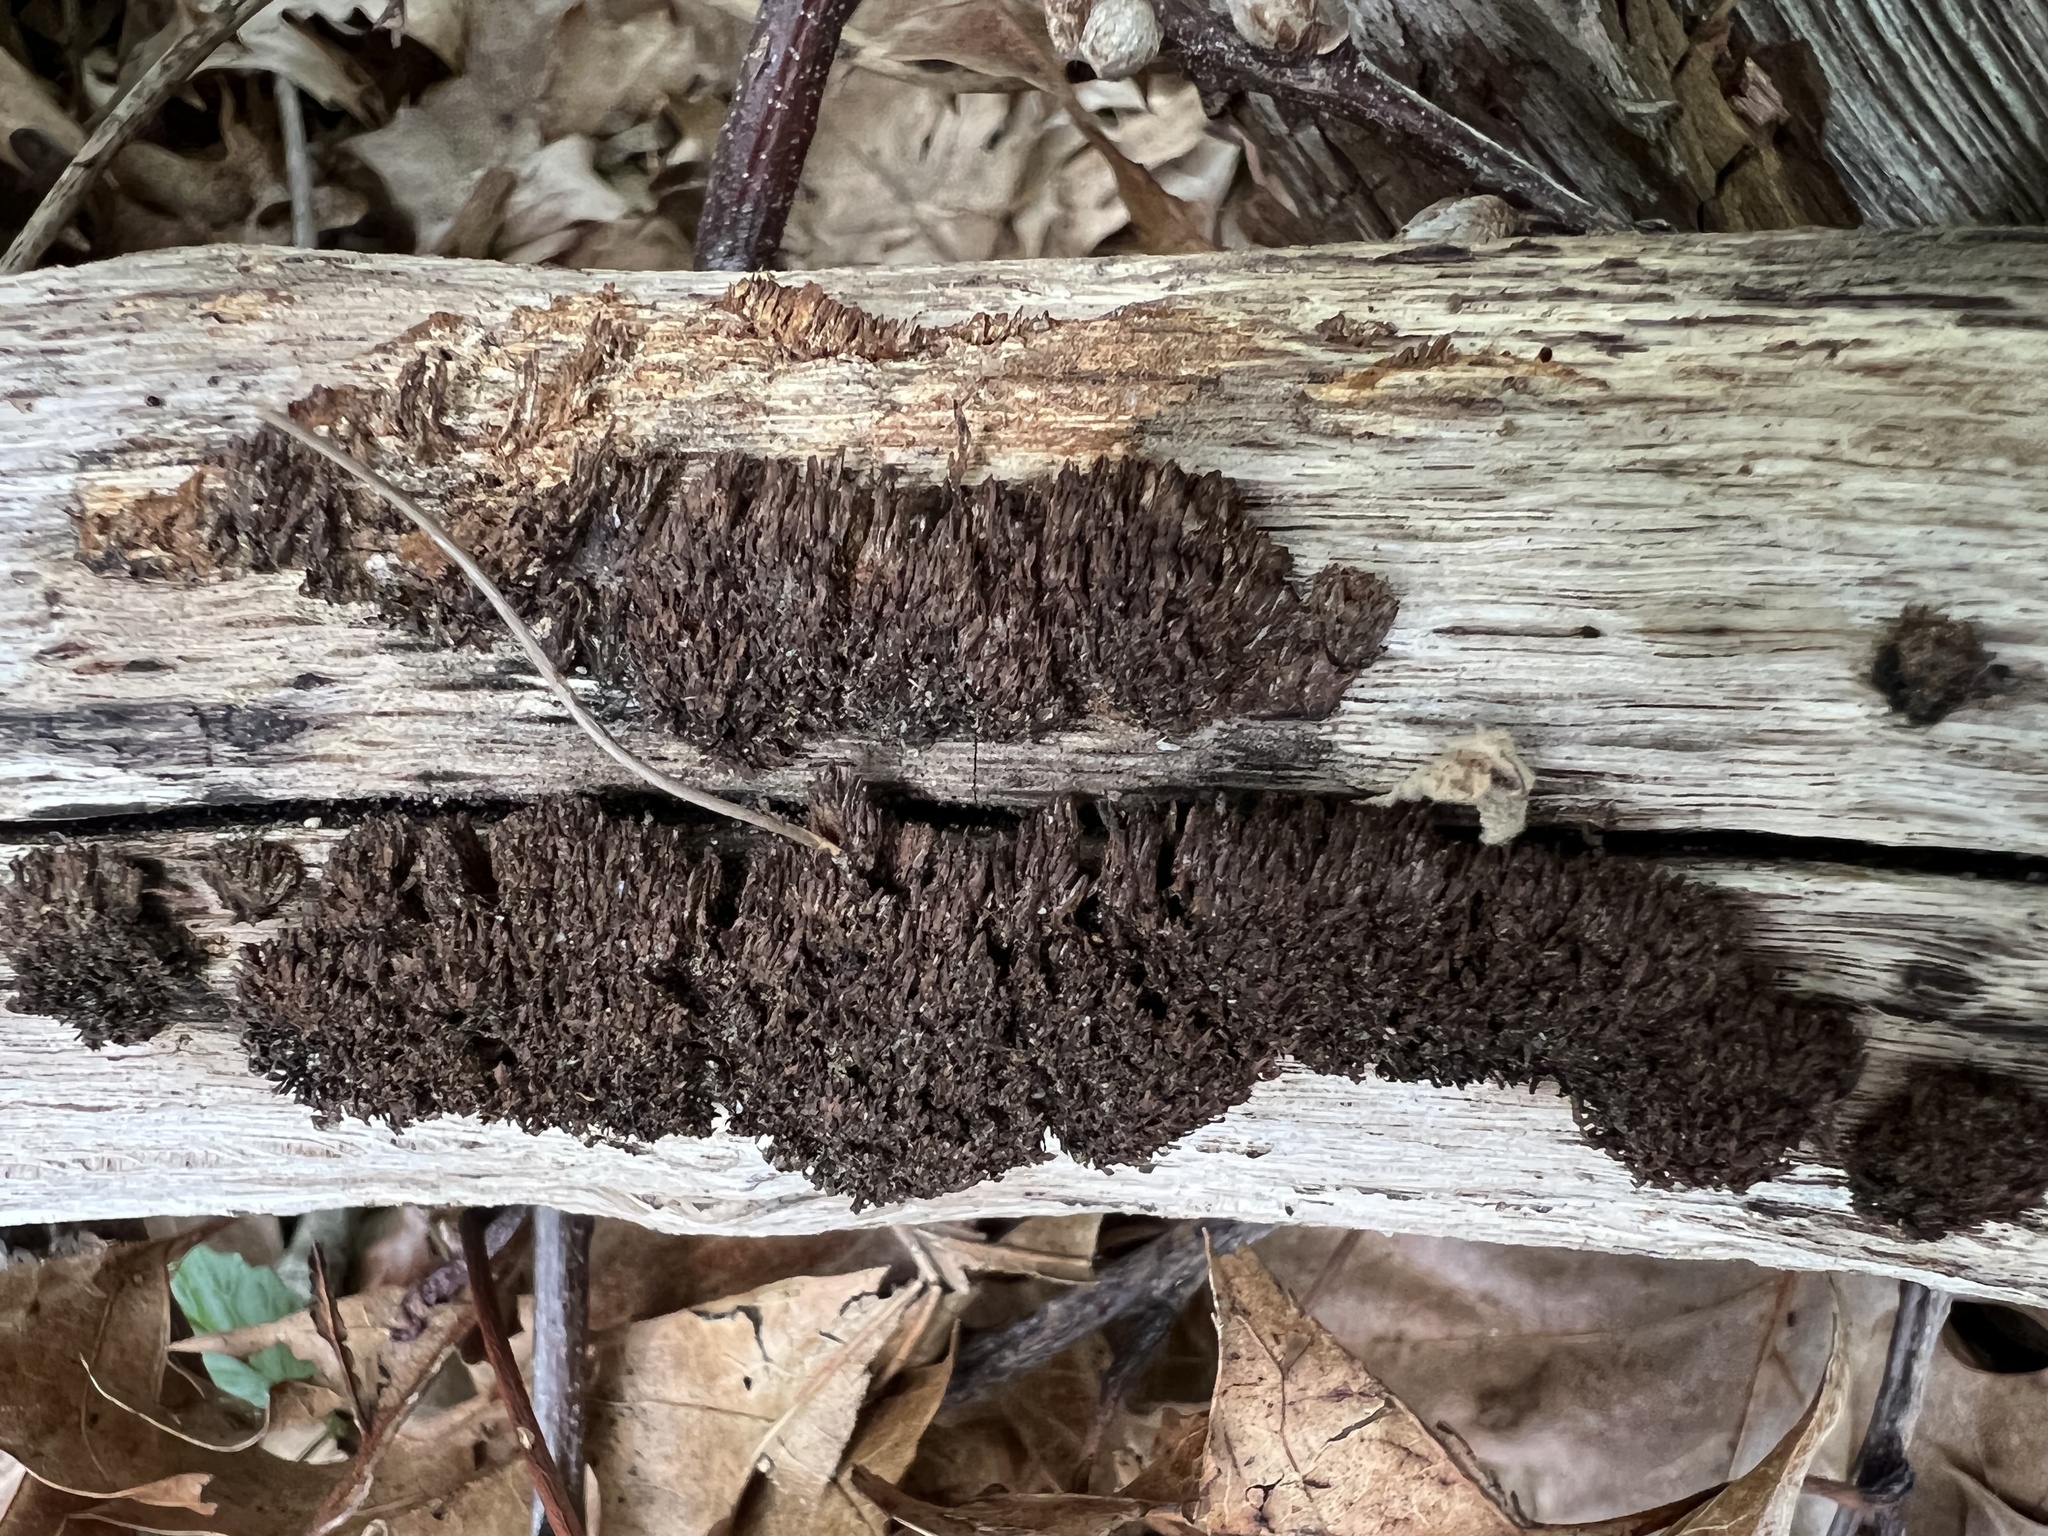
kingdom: Protozoa
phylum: Mycetozoa
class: Myxomycetes
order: Stemonitidales
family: Stemonitidaceae
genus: Stemonitis
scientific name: Stemonitis splendens
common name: Chocolate tube slime
